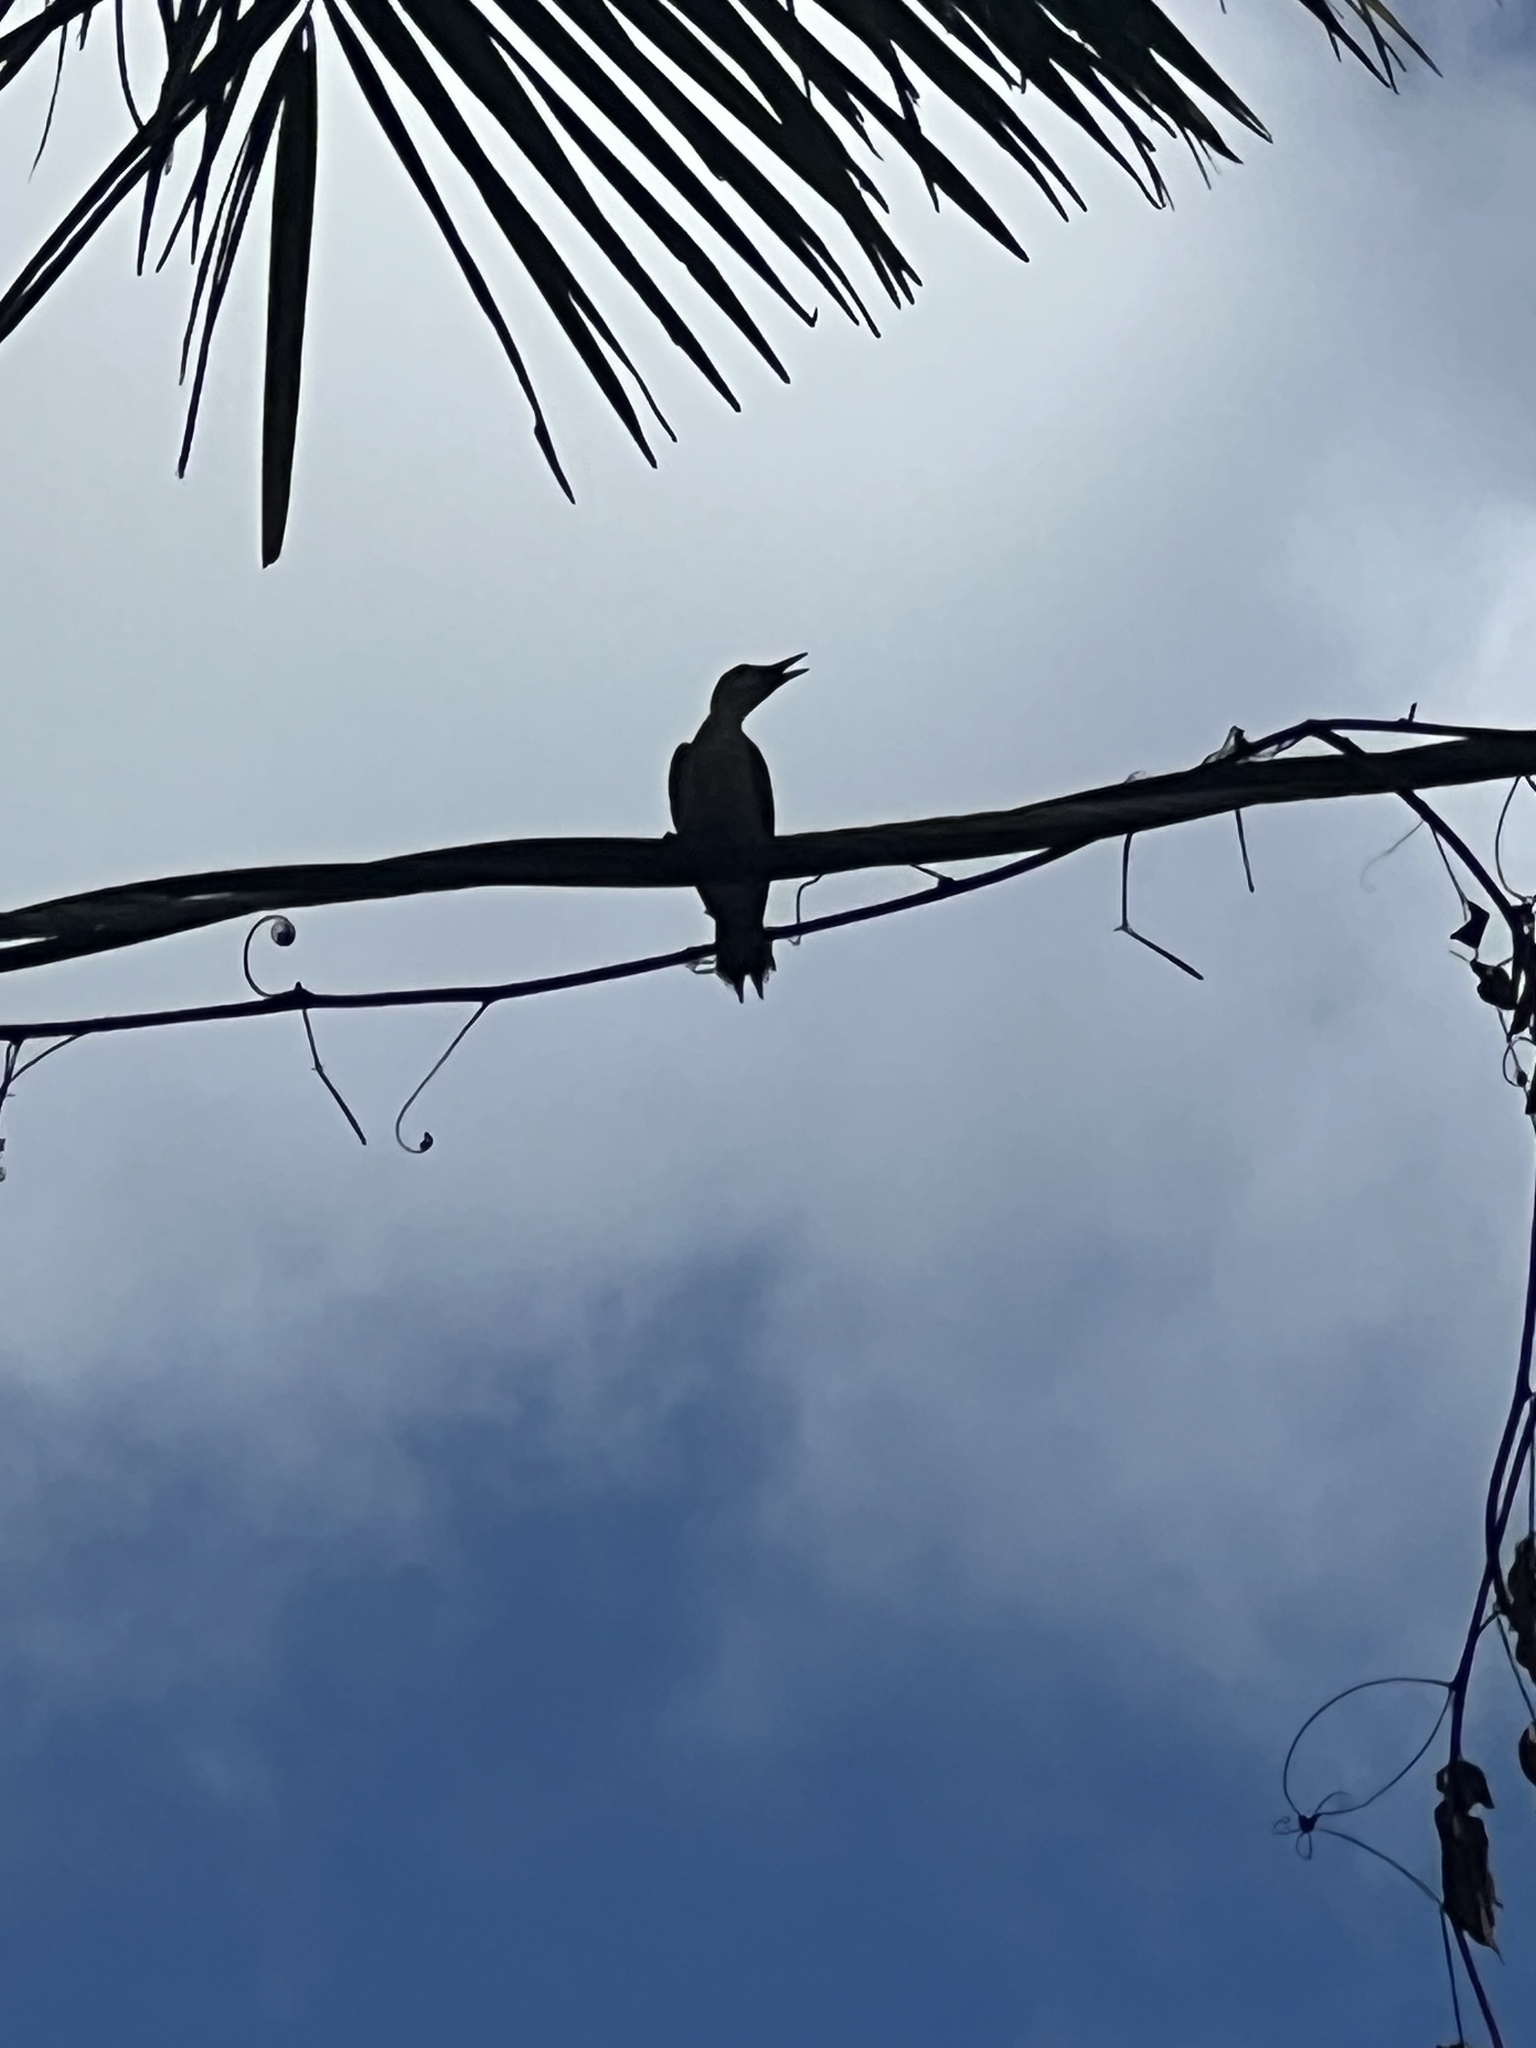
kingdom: Animalia
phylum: Chordata
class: Aves
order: Piciformes
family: Picidae
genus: Melanerpes
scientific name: Melanerpes aurifrons
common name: Golden-fronted woodpecker
